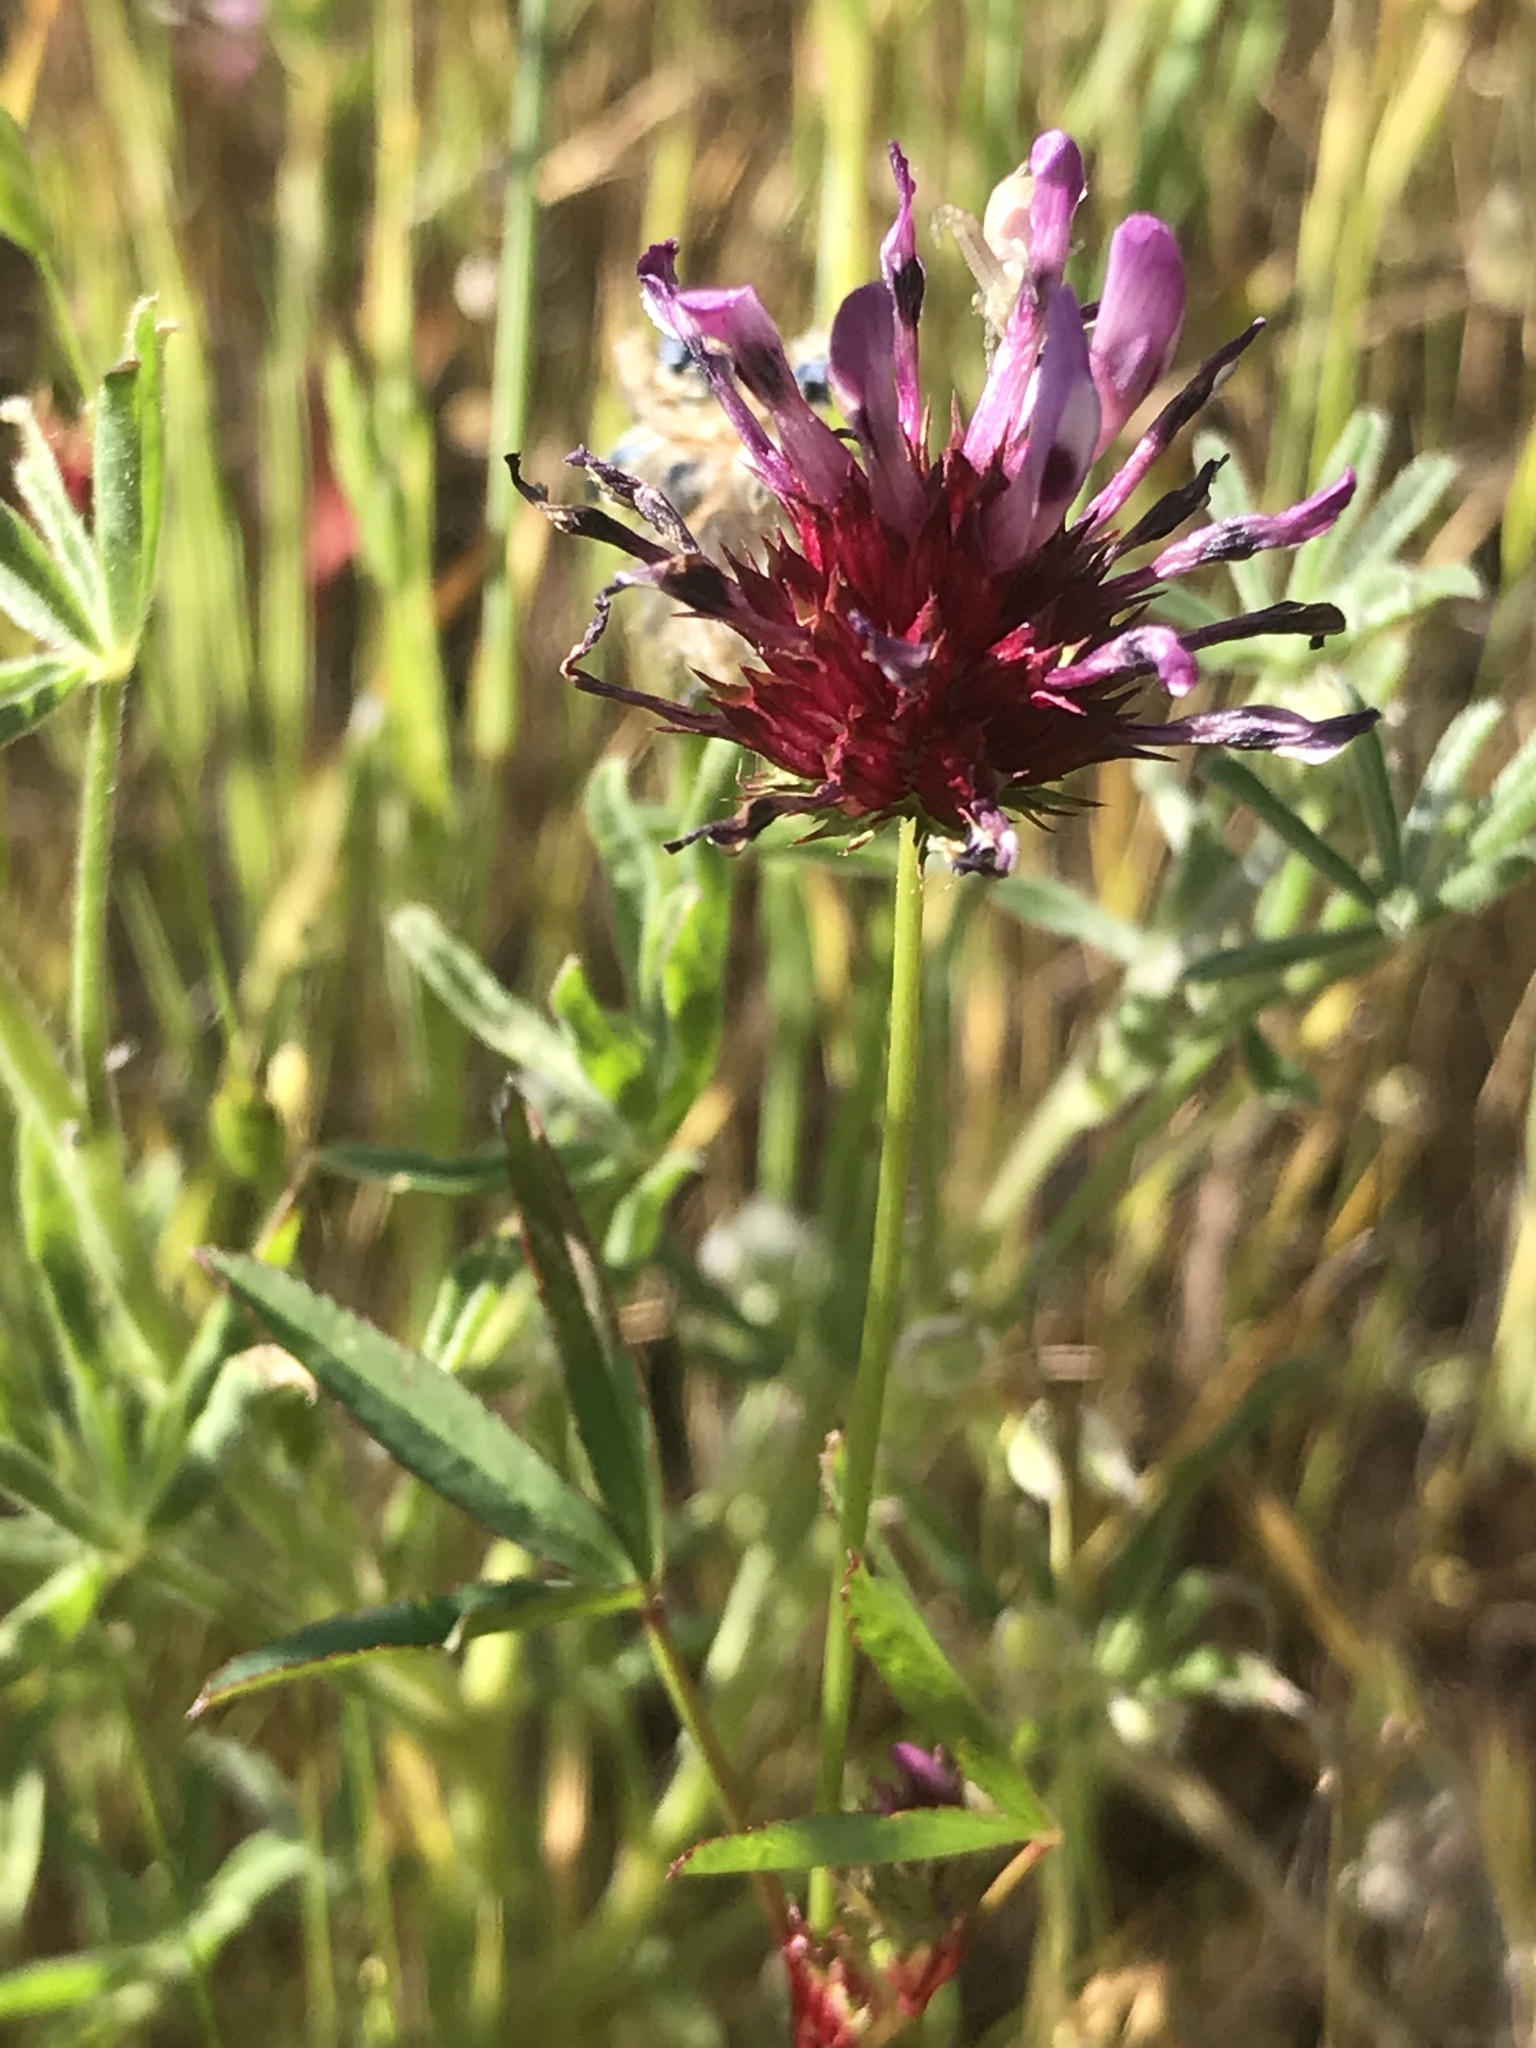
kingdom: Plantae
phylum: Tracheophyta
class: Magnoliopsida
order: Fabales
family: Fabaceae
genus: Trifolium
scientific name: Trifolium willdenovii
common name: Tomcat clover
